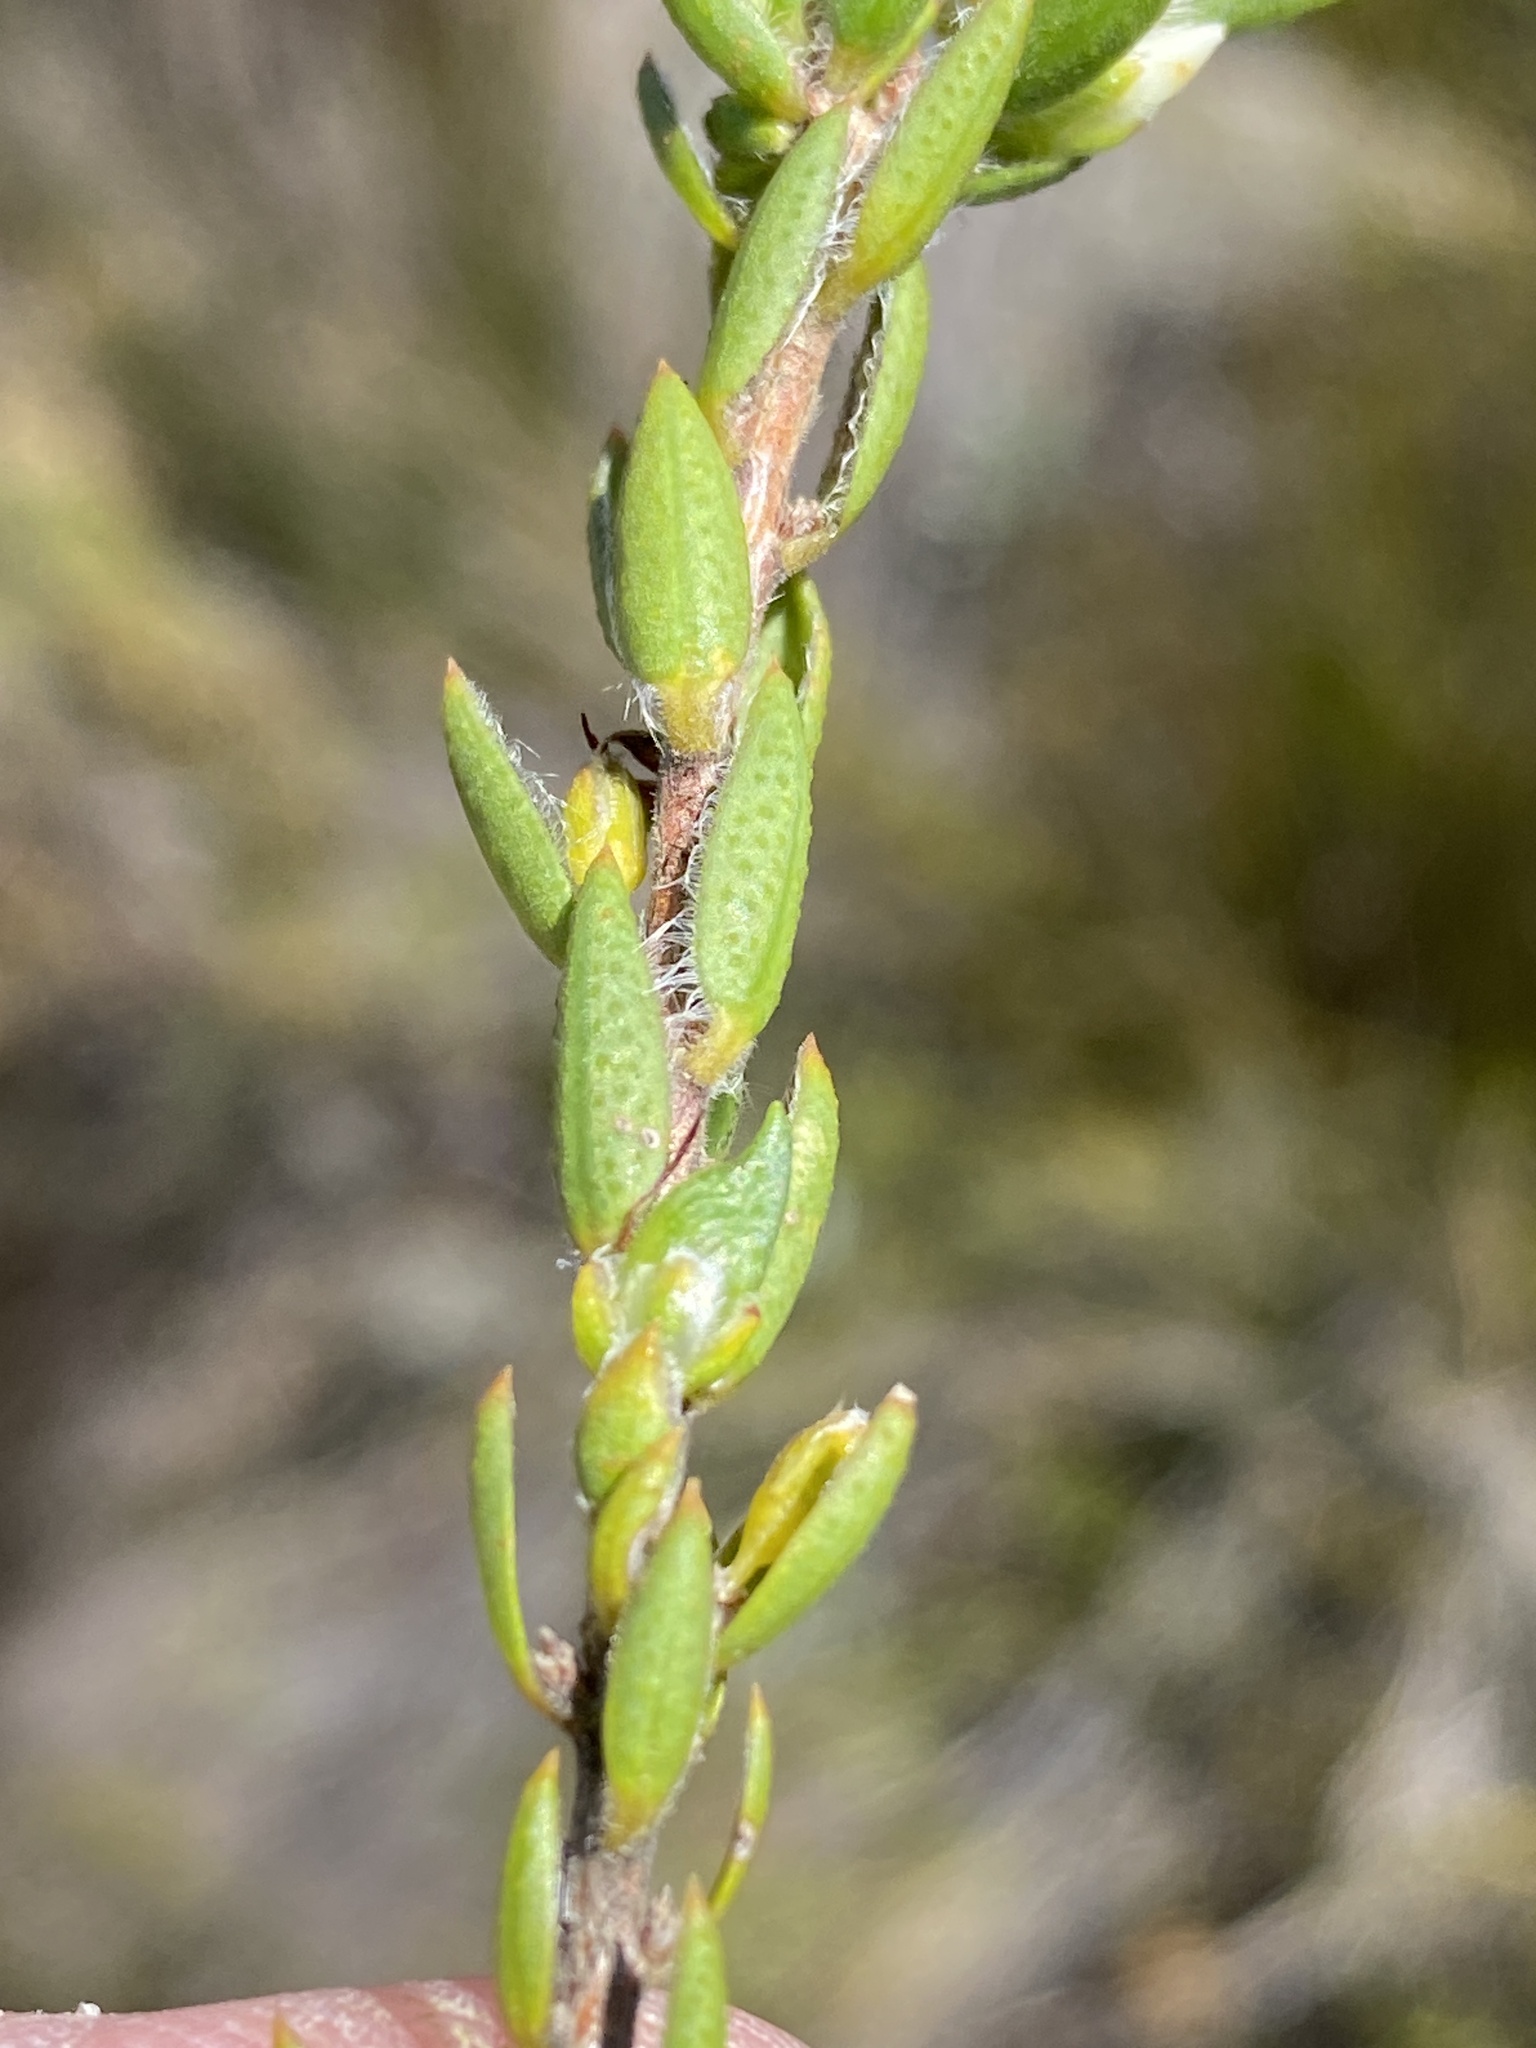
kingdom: Plantae
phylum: Tracheophyta
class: Magnoliopsida
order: Sapindales
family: Rutaceae
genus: Agathosma
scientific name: Agathosma kougaense
